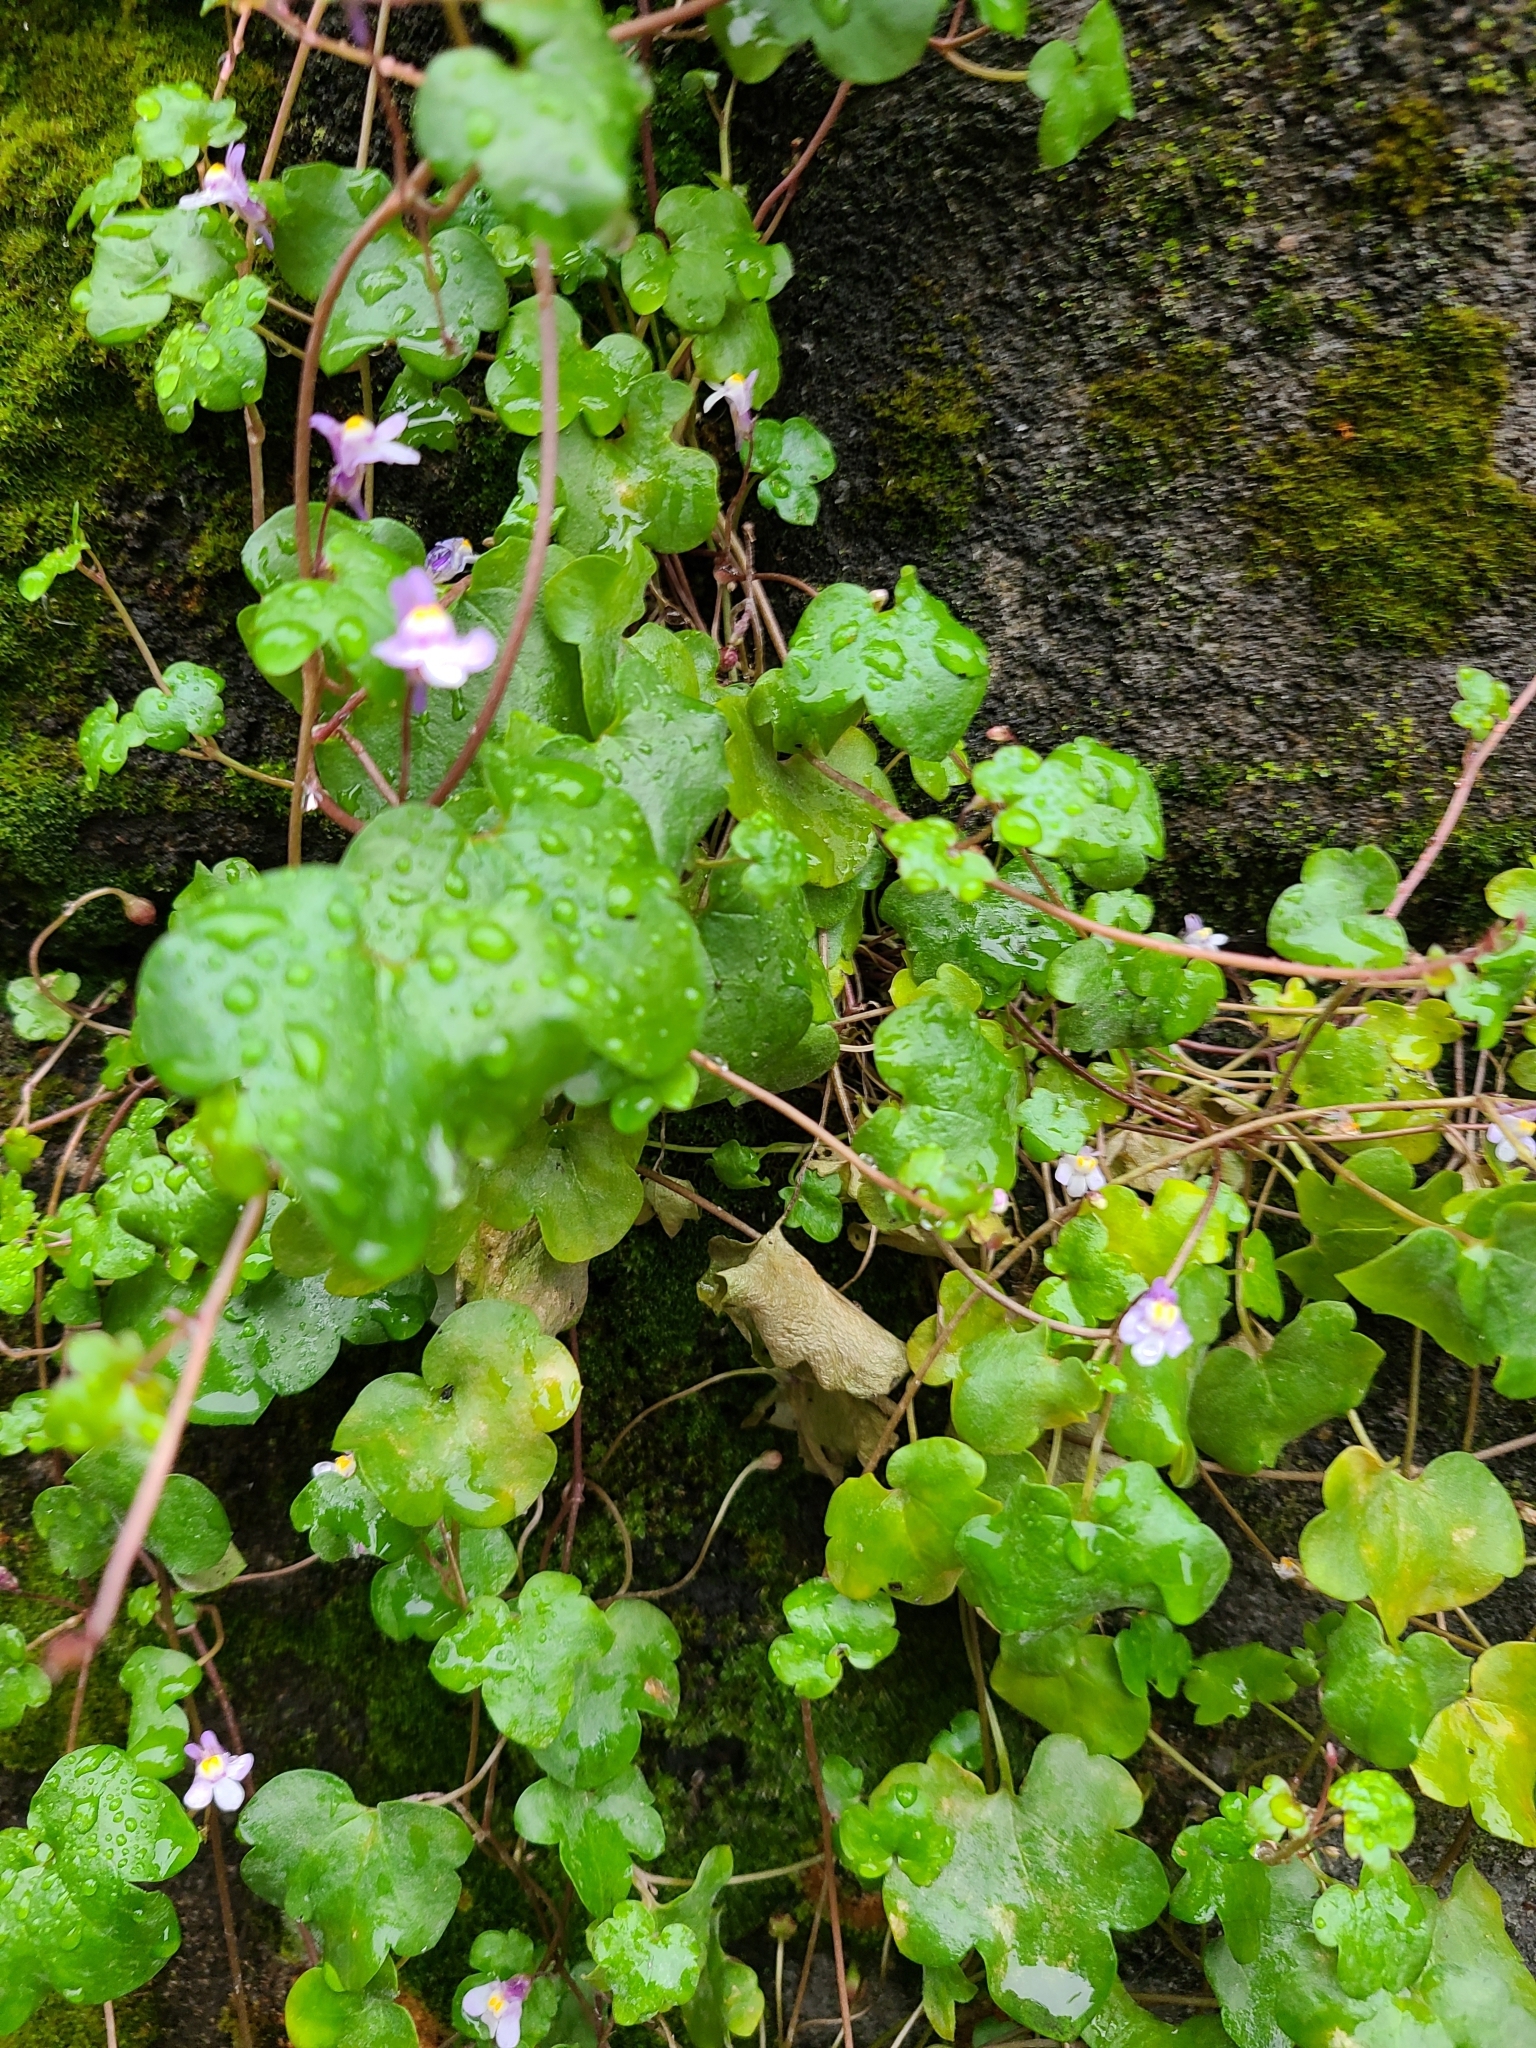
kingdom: Plantae
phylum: Tracheophyta
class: Magnoliopsida
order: Lamiales
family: Plantaginaceae
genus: Cymbalaria
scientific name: Cymbalaria muralis
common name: Ivy-leaved toadflax
